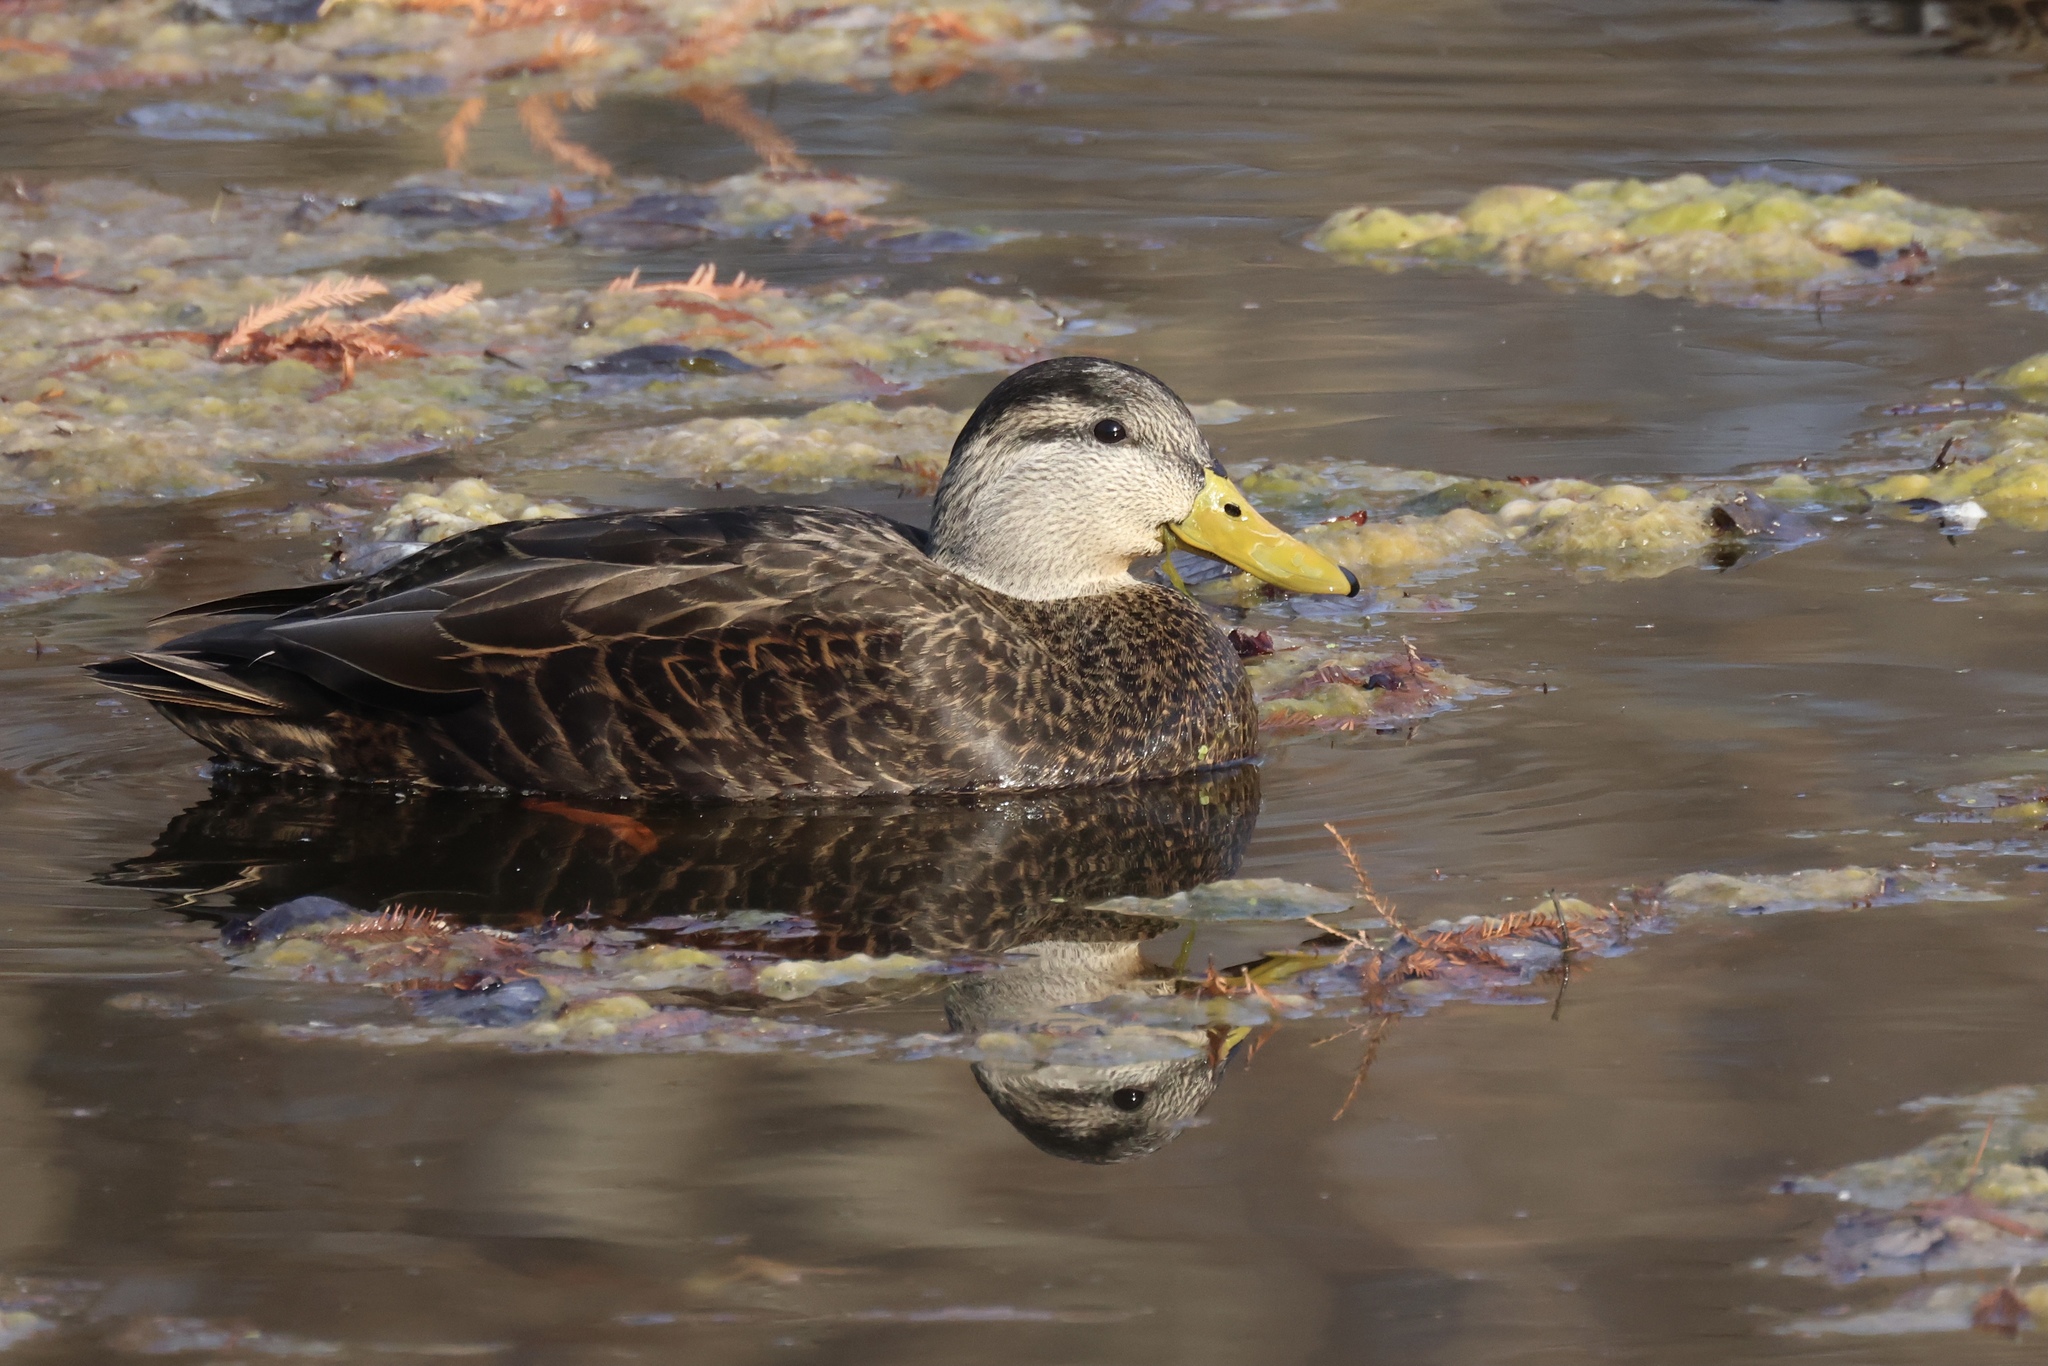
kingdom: Animalia
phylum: Chordata
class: Aves
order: Anseriformes
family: Anatidae
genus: Anas
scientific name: Anas rubripes
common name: American black duck
